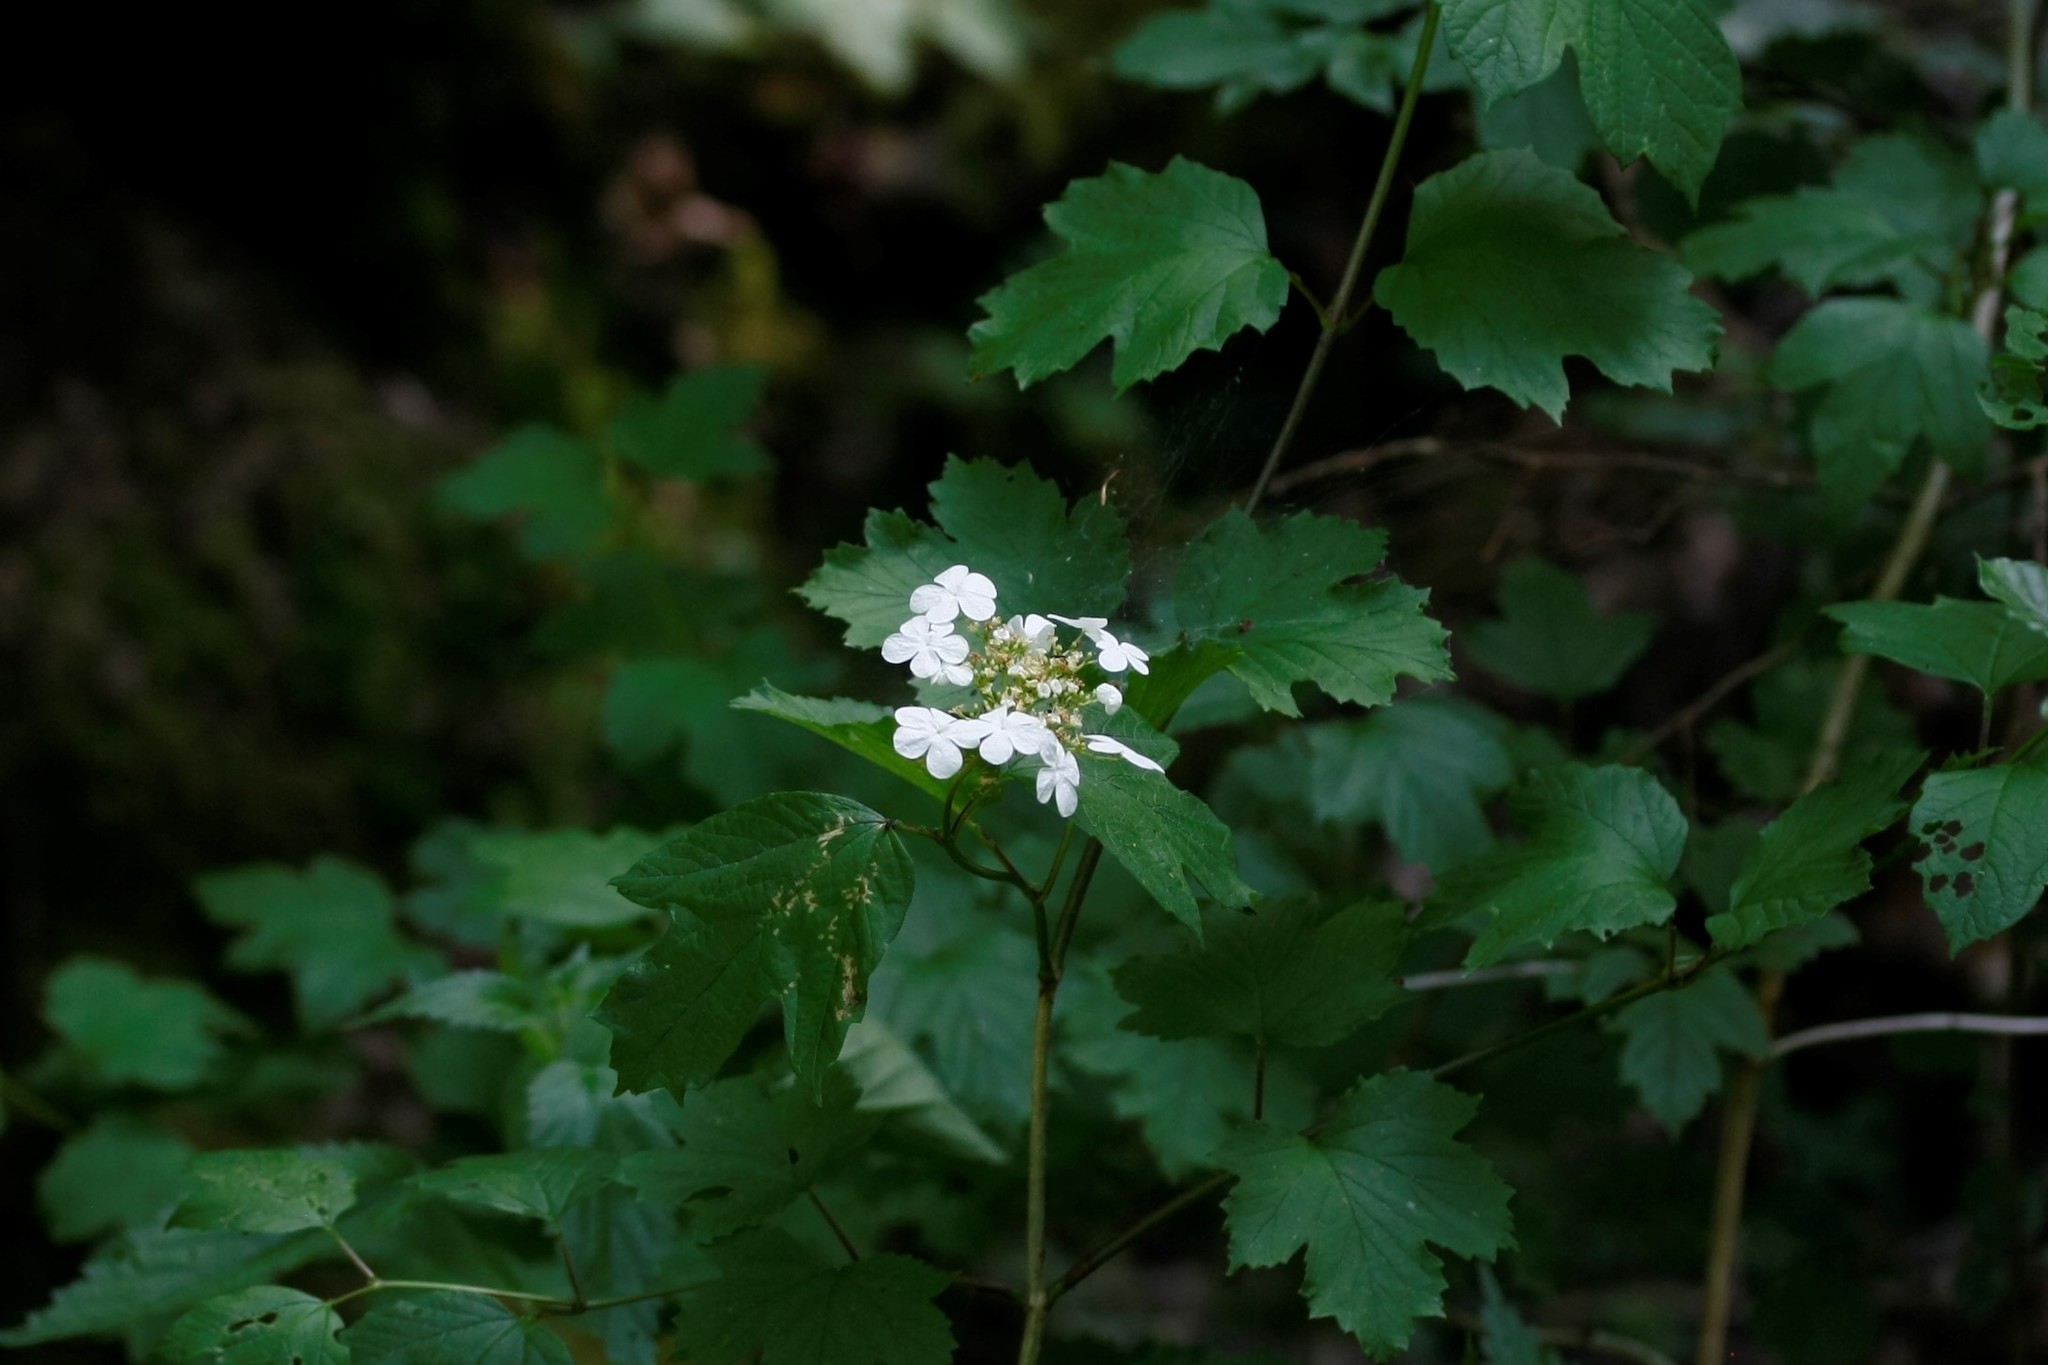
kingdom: Plantae
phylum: Tracheophyta
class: Magnoliopsida
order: Dipsacales
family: Viburnaceae
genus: Viburnum
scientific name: Viburnum opulus
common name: Guelder-rose
